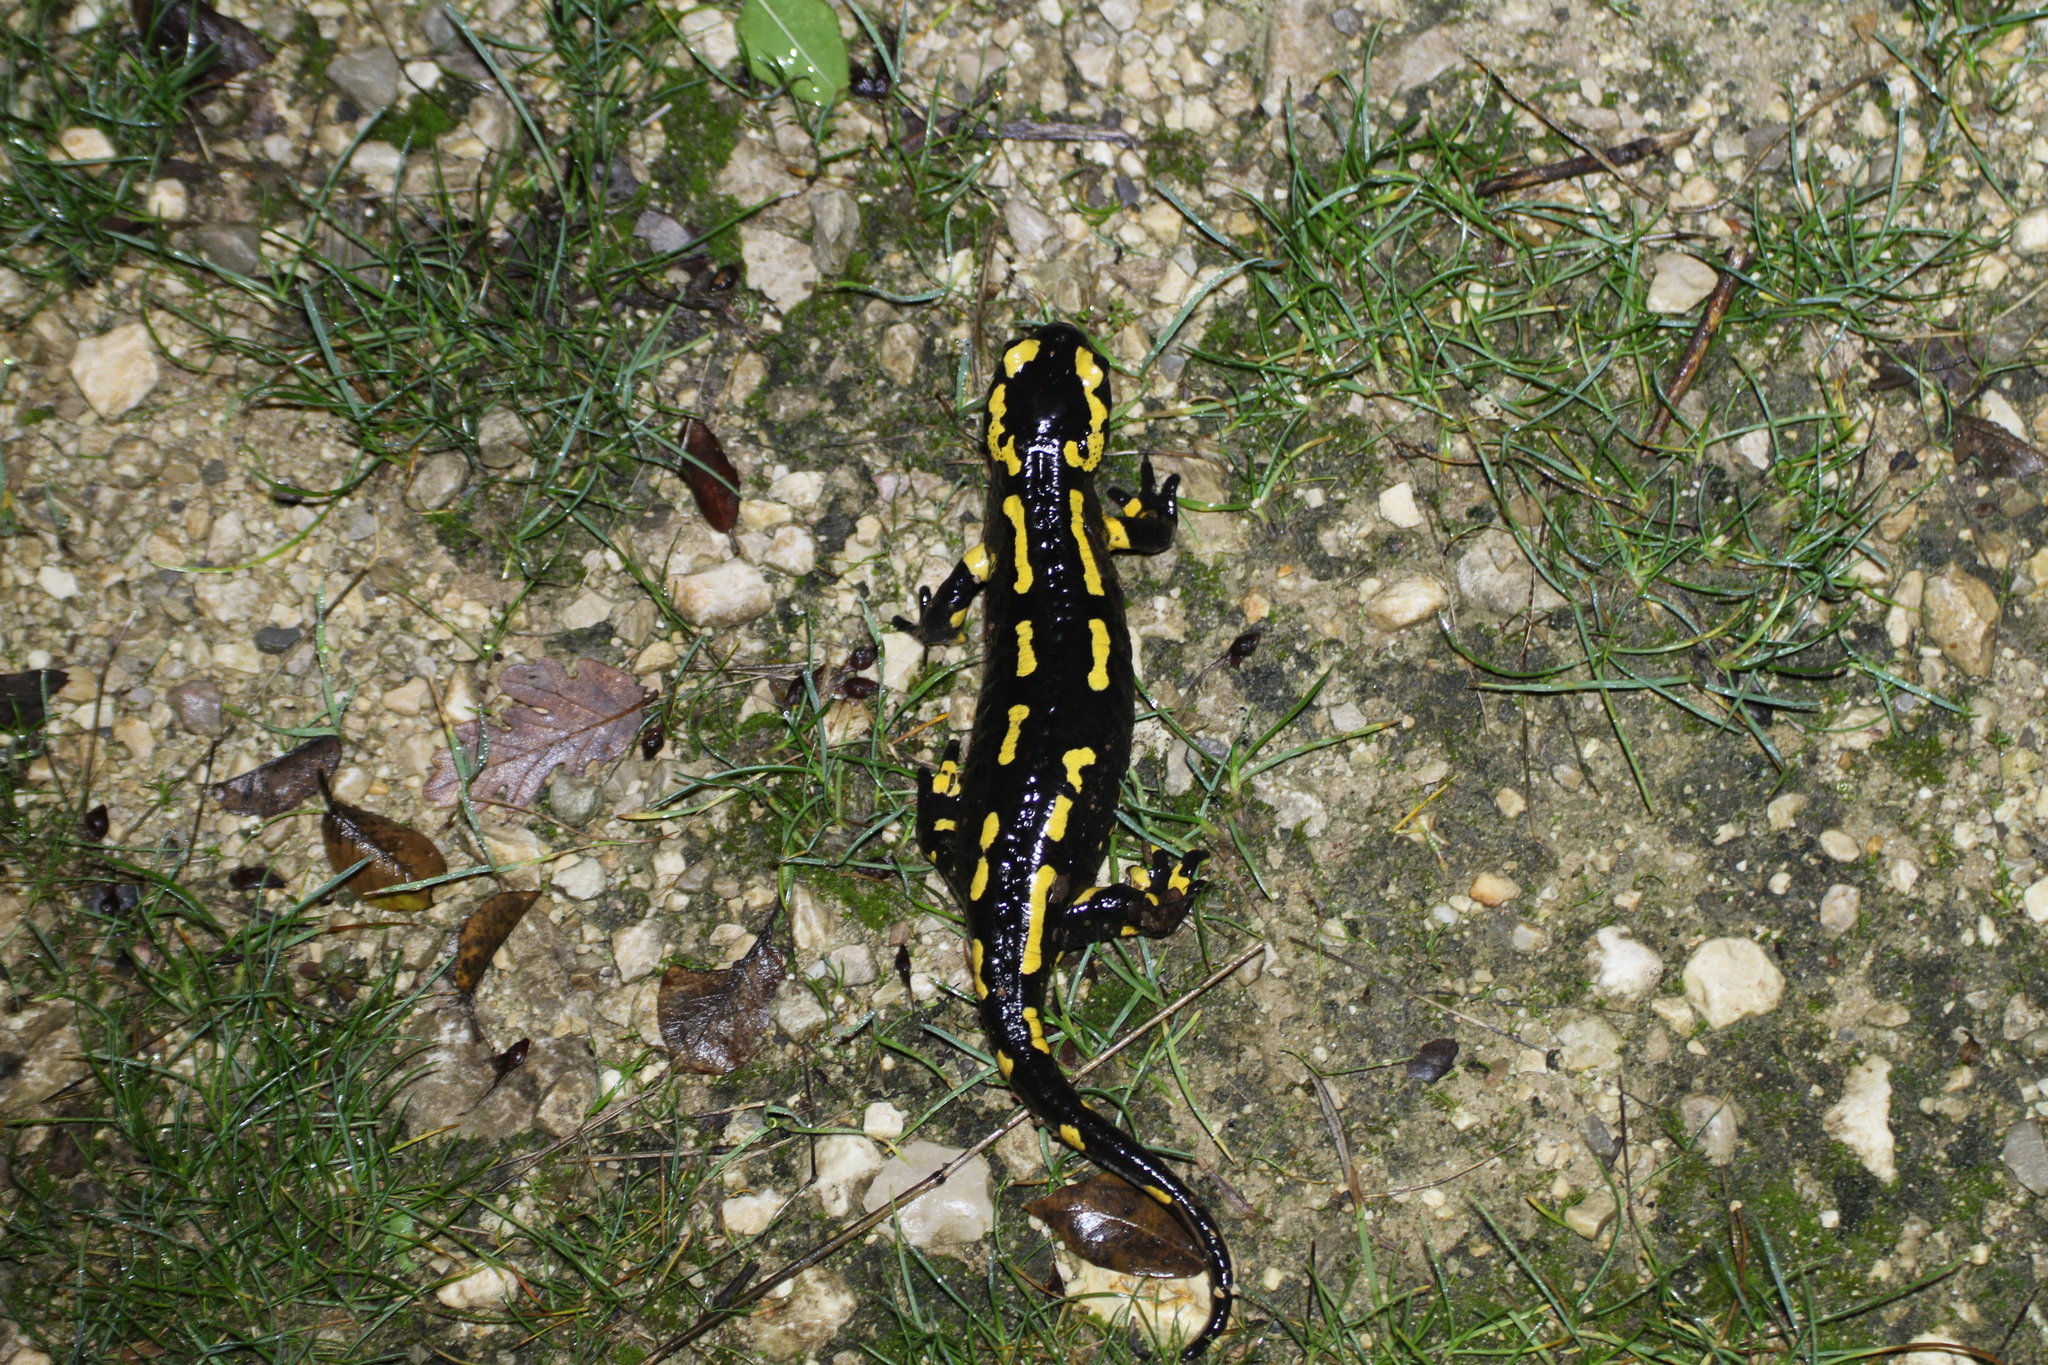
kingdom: Animalia
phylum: Chordata
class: Amphibia
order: Caudata
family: Salamandridae
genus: Salamandra
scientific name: Salamandra salamandra
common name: Fire salamander
